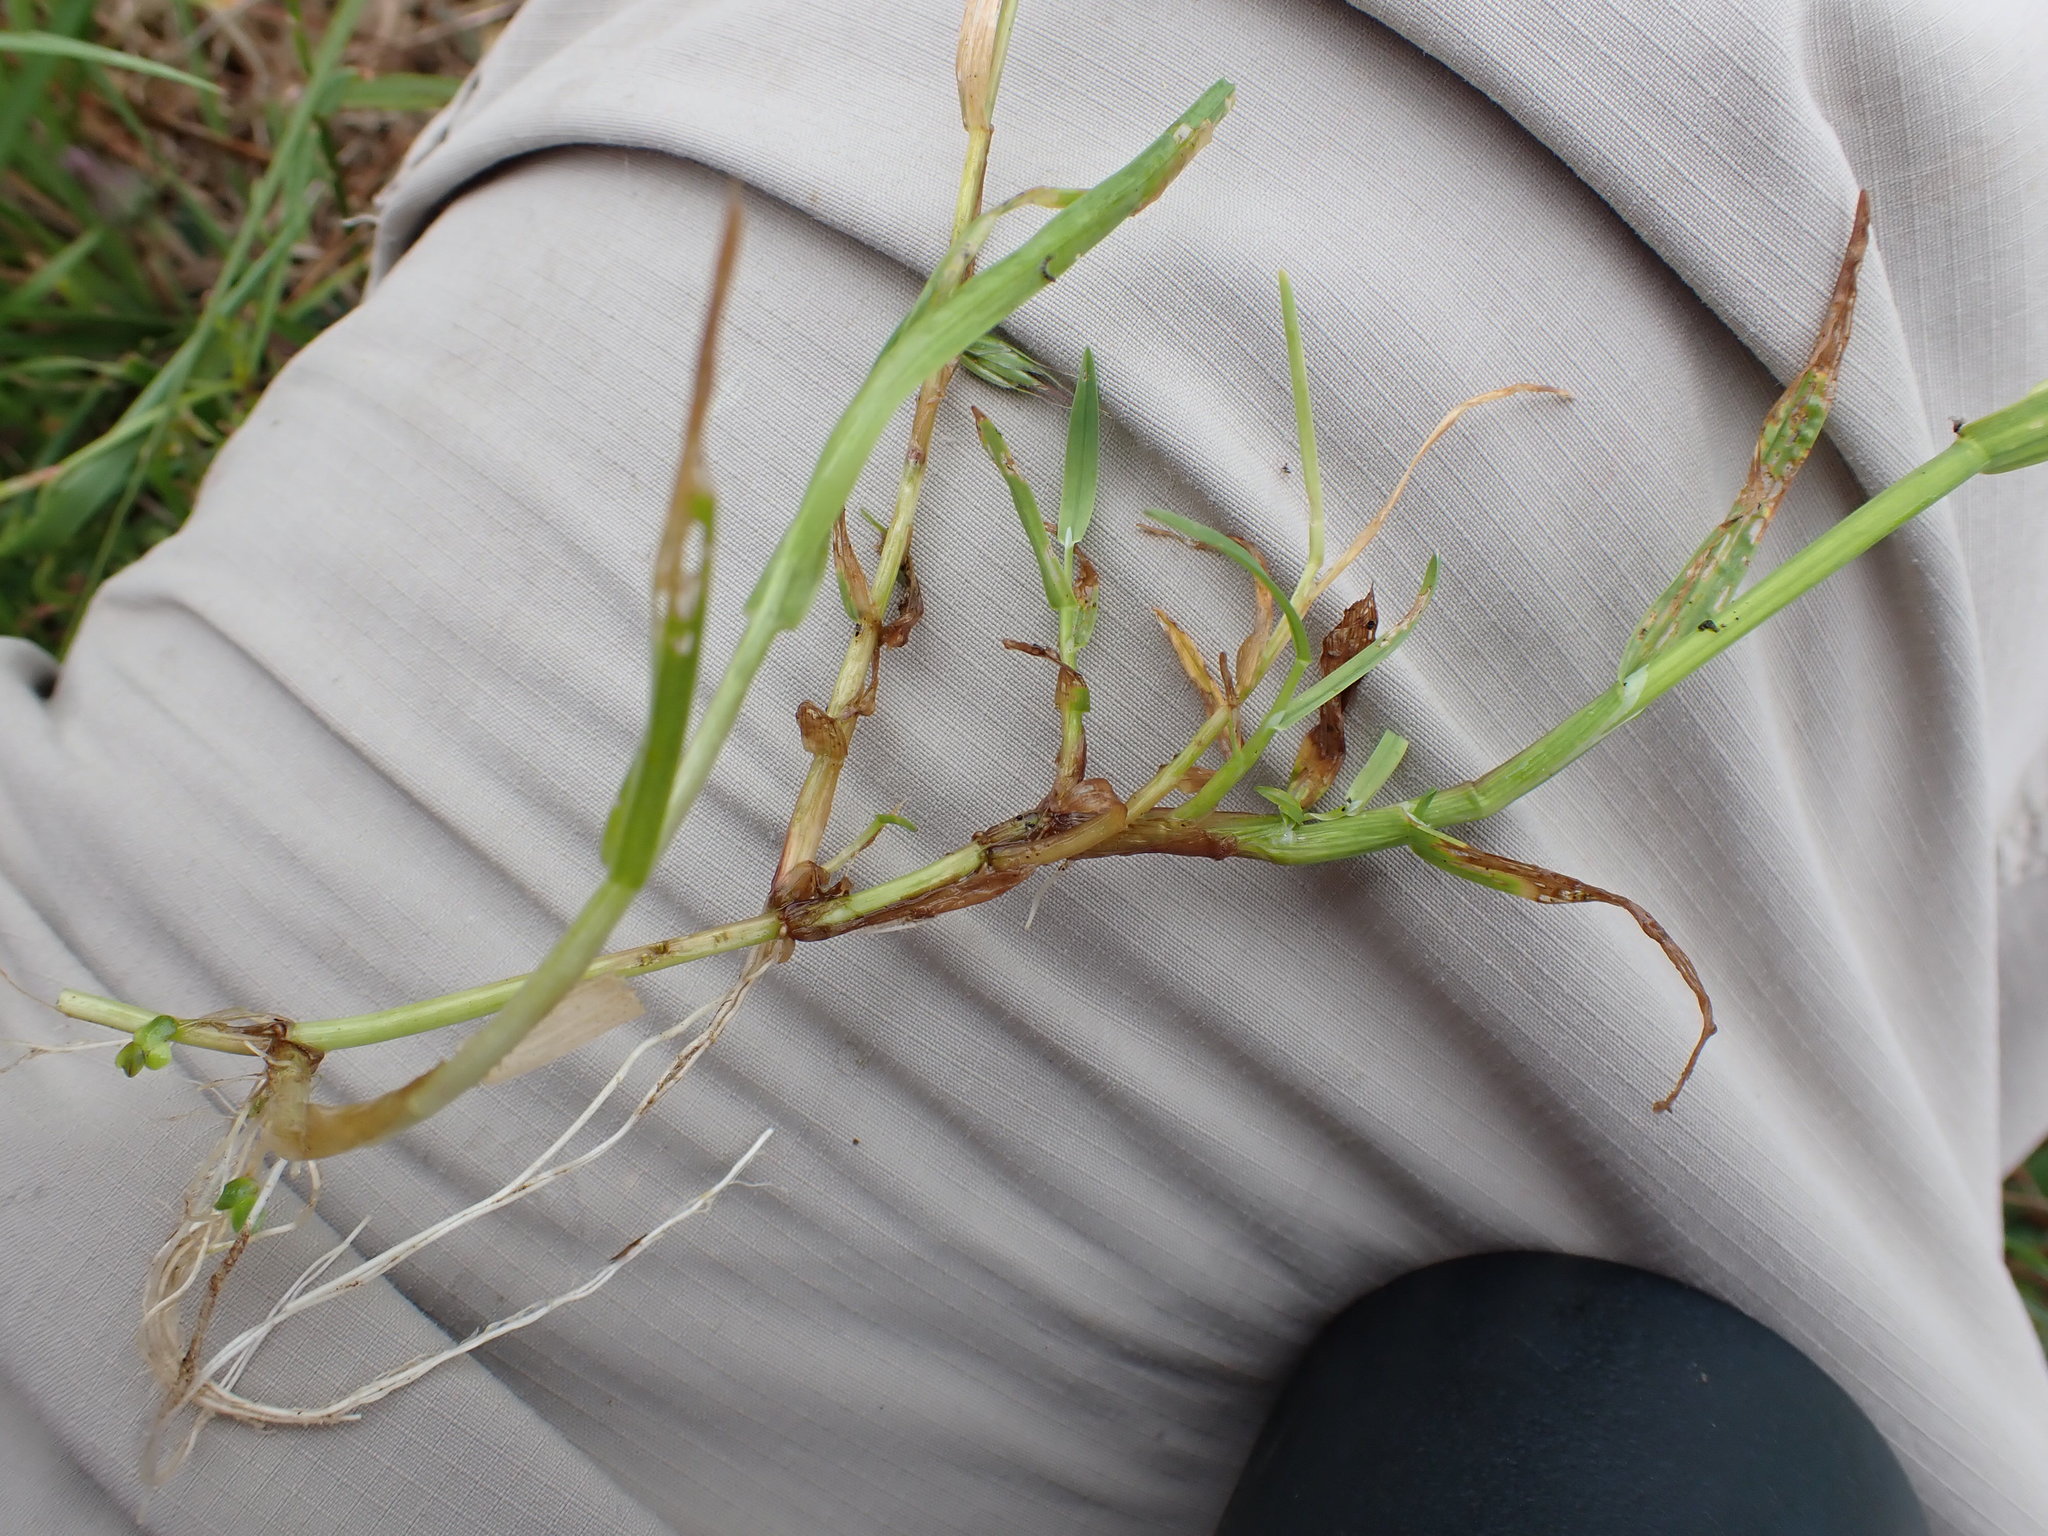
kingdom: Plantae
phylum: Tracheophyta
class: Liliopsida
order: Poales
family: Poaceae
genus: Catabrosa
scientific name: Catabrosa aquatica
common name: Whorl-grass
